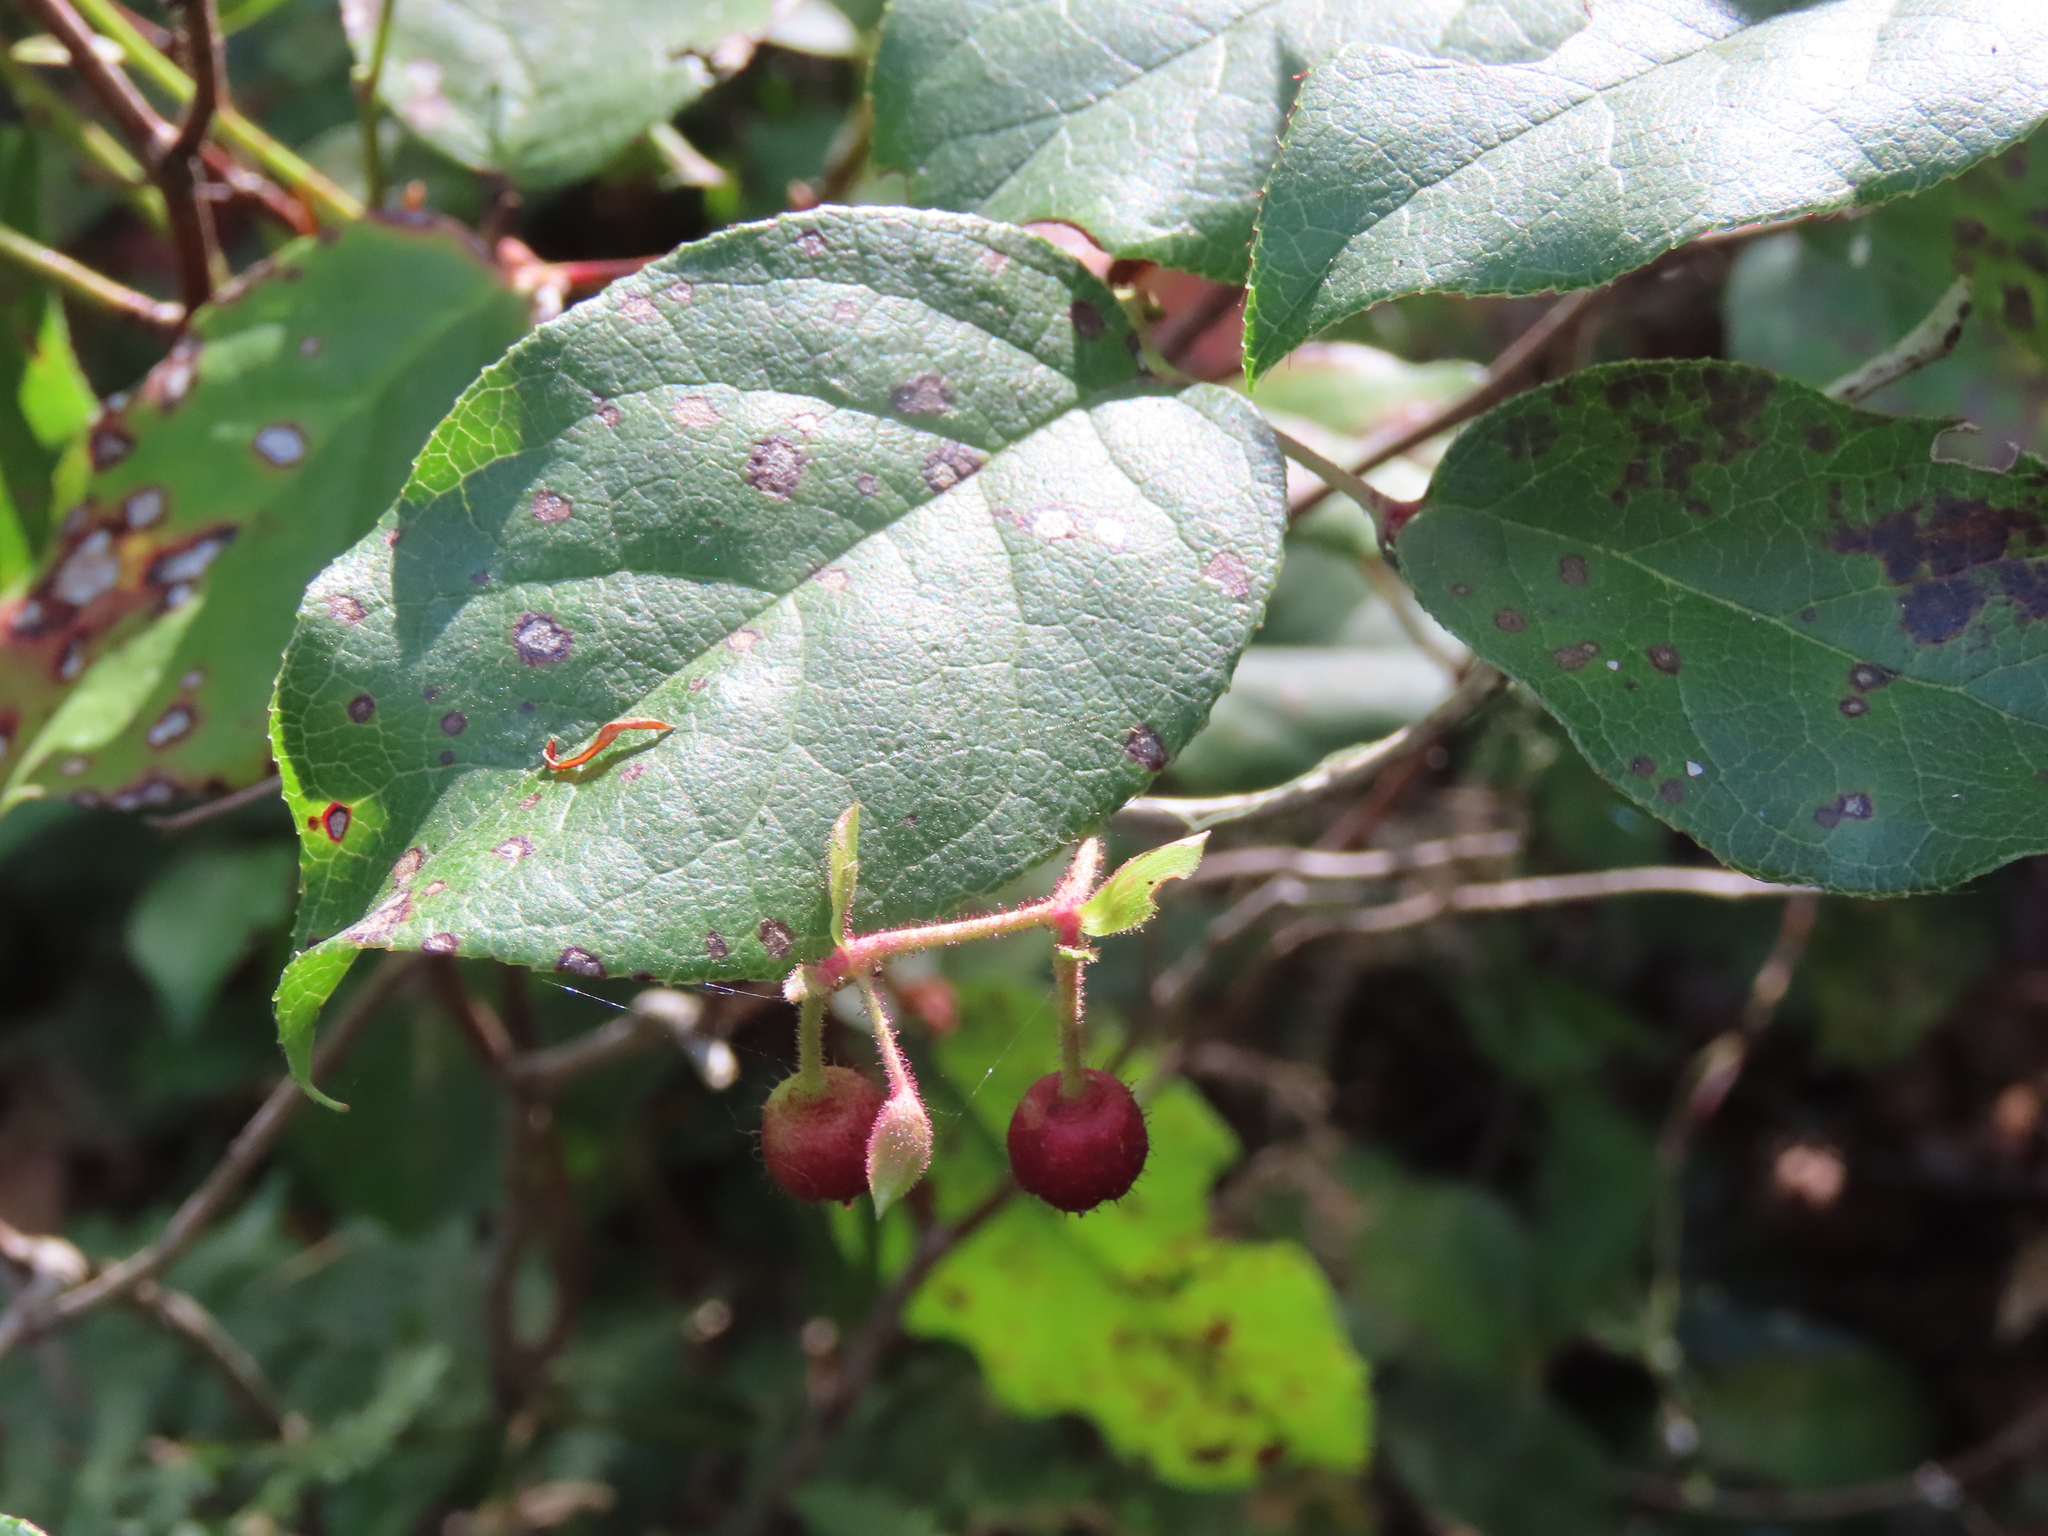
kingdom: Plantae
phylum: Tracheophyta
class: Magnoliopsida
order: Ericales
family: Ericaceae
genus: Gaultheria
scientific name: Gaultheria shallon
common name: Shallon
